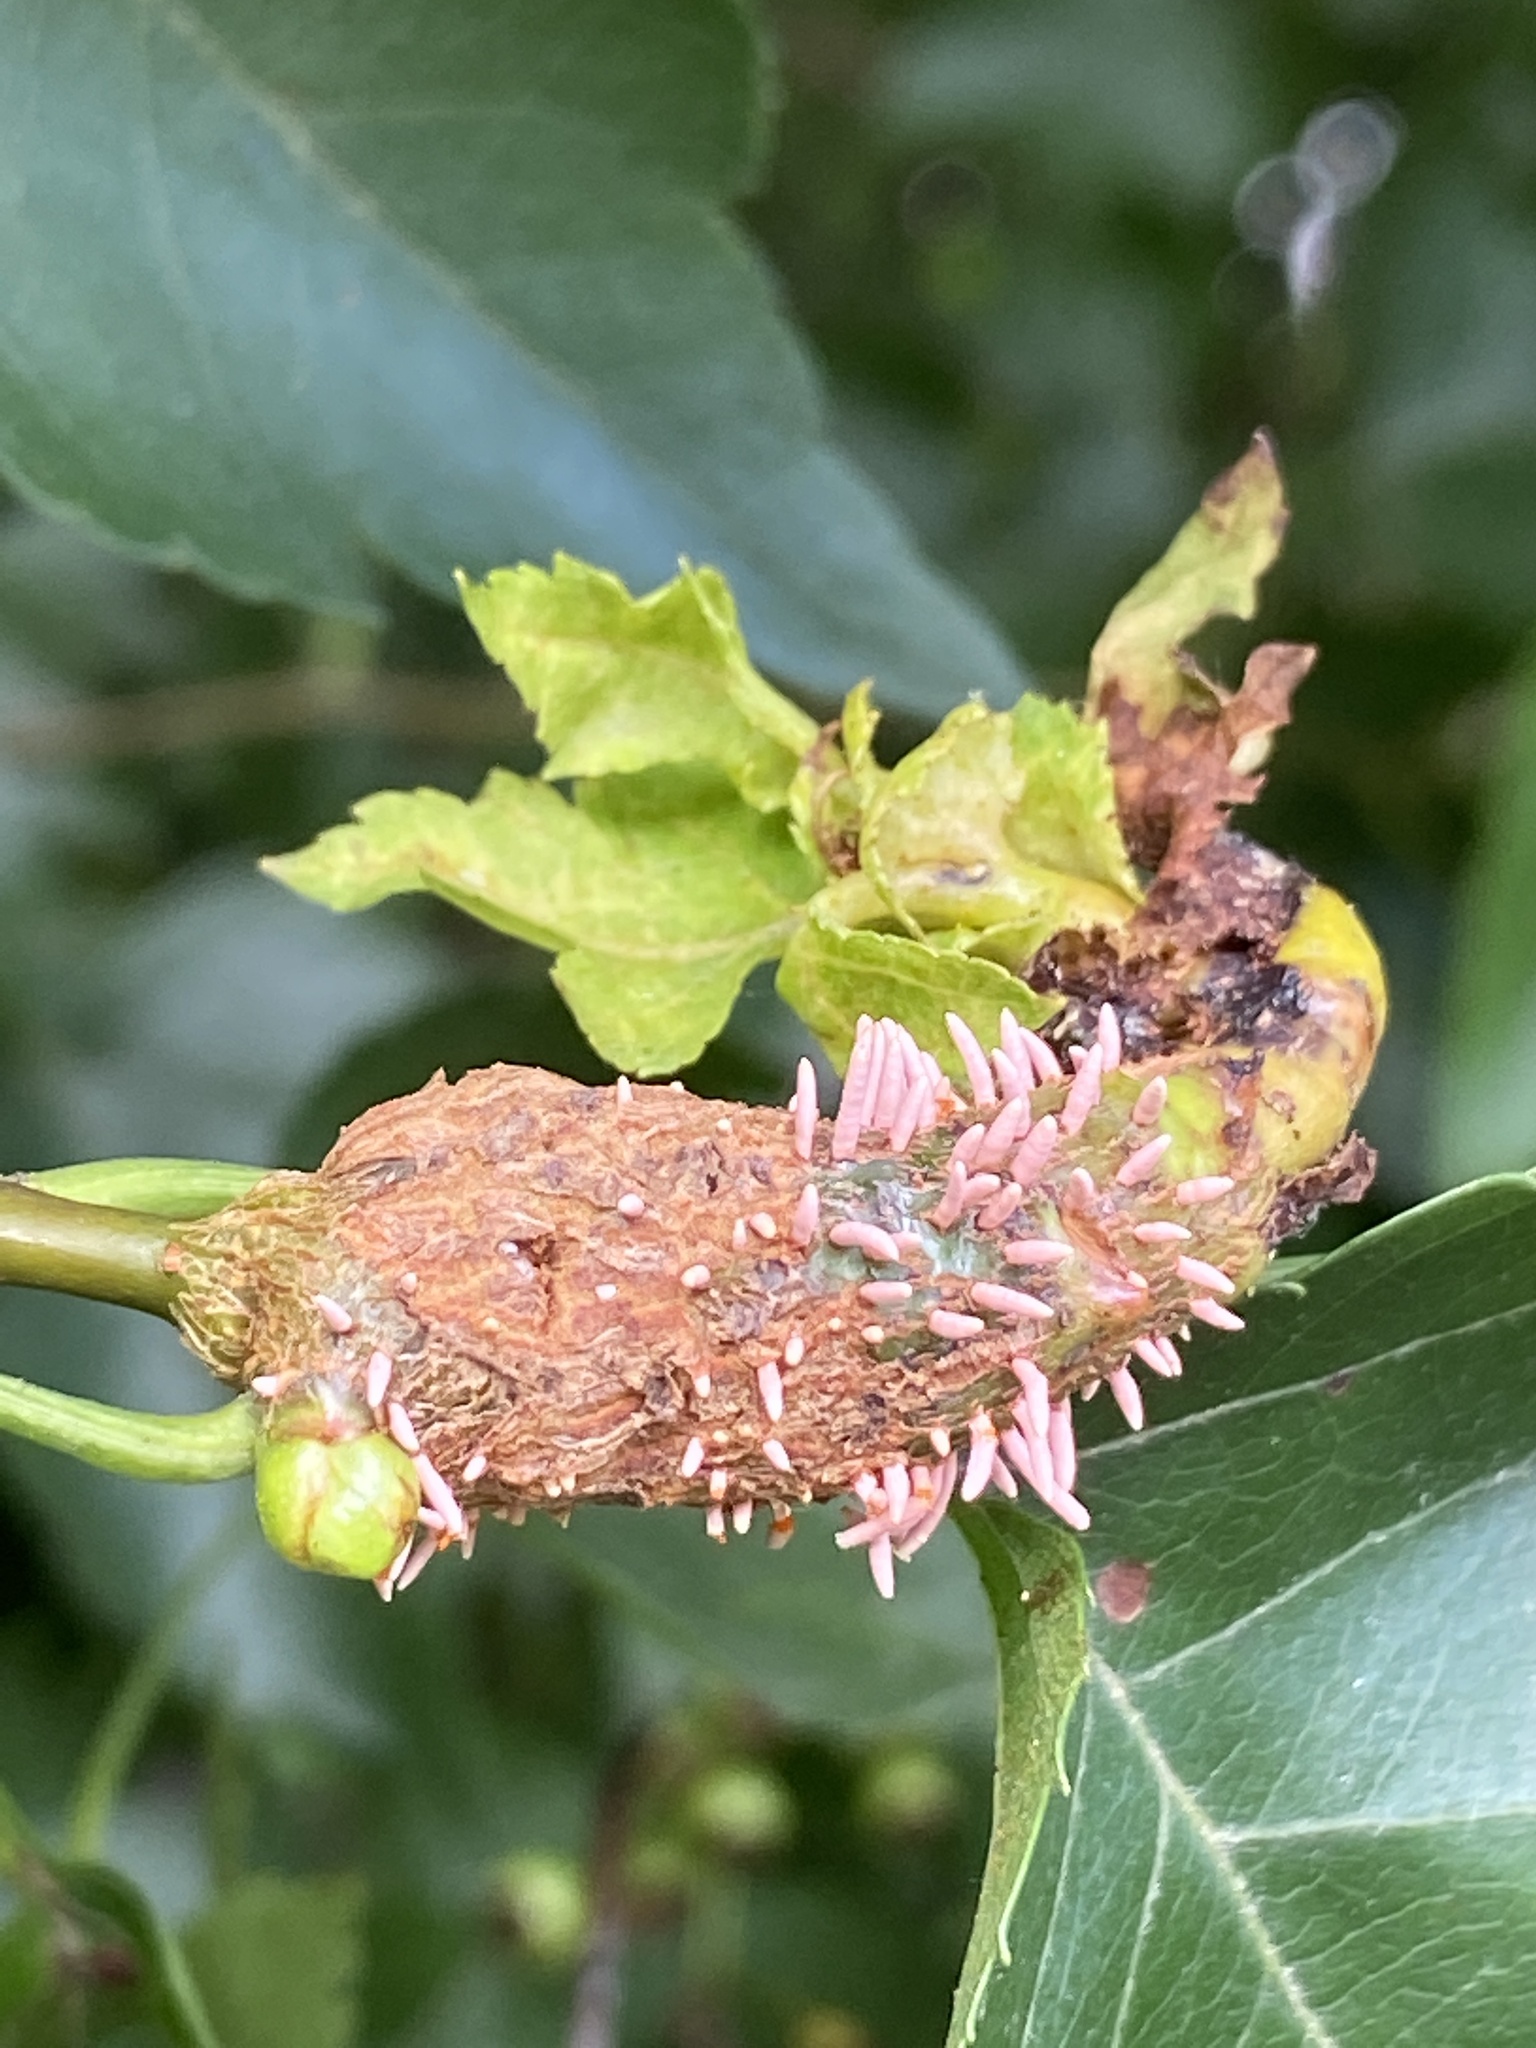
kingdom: Fungi
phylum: Basidiomycota
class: Pucciniomycetes
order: Pucciniales
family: Gymnosporangiaceae
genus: Gymnosporangium
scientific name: Gymnosporangium globosum
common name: Juniper-hawthorn rust
